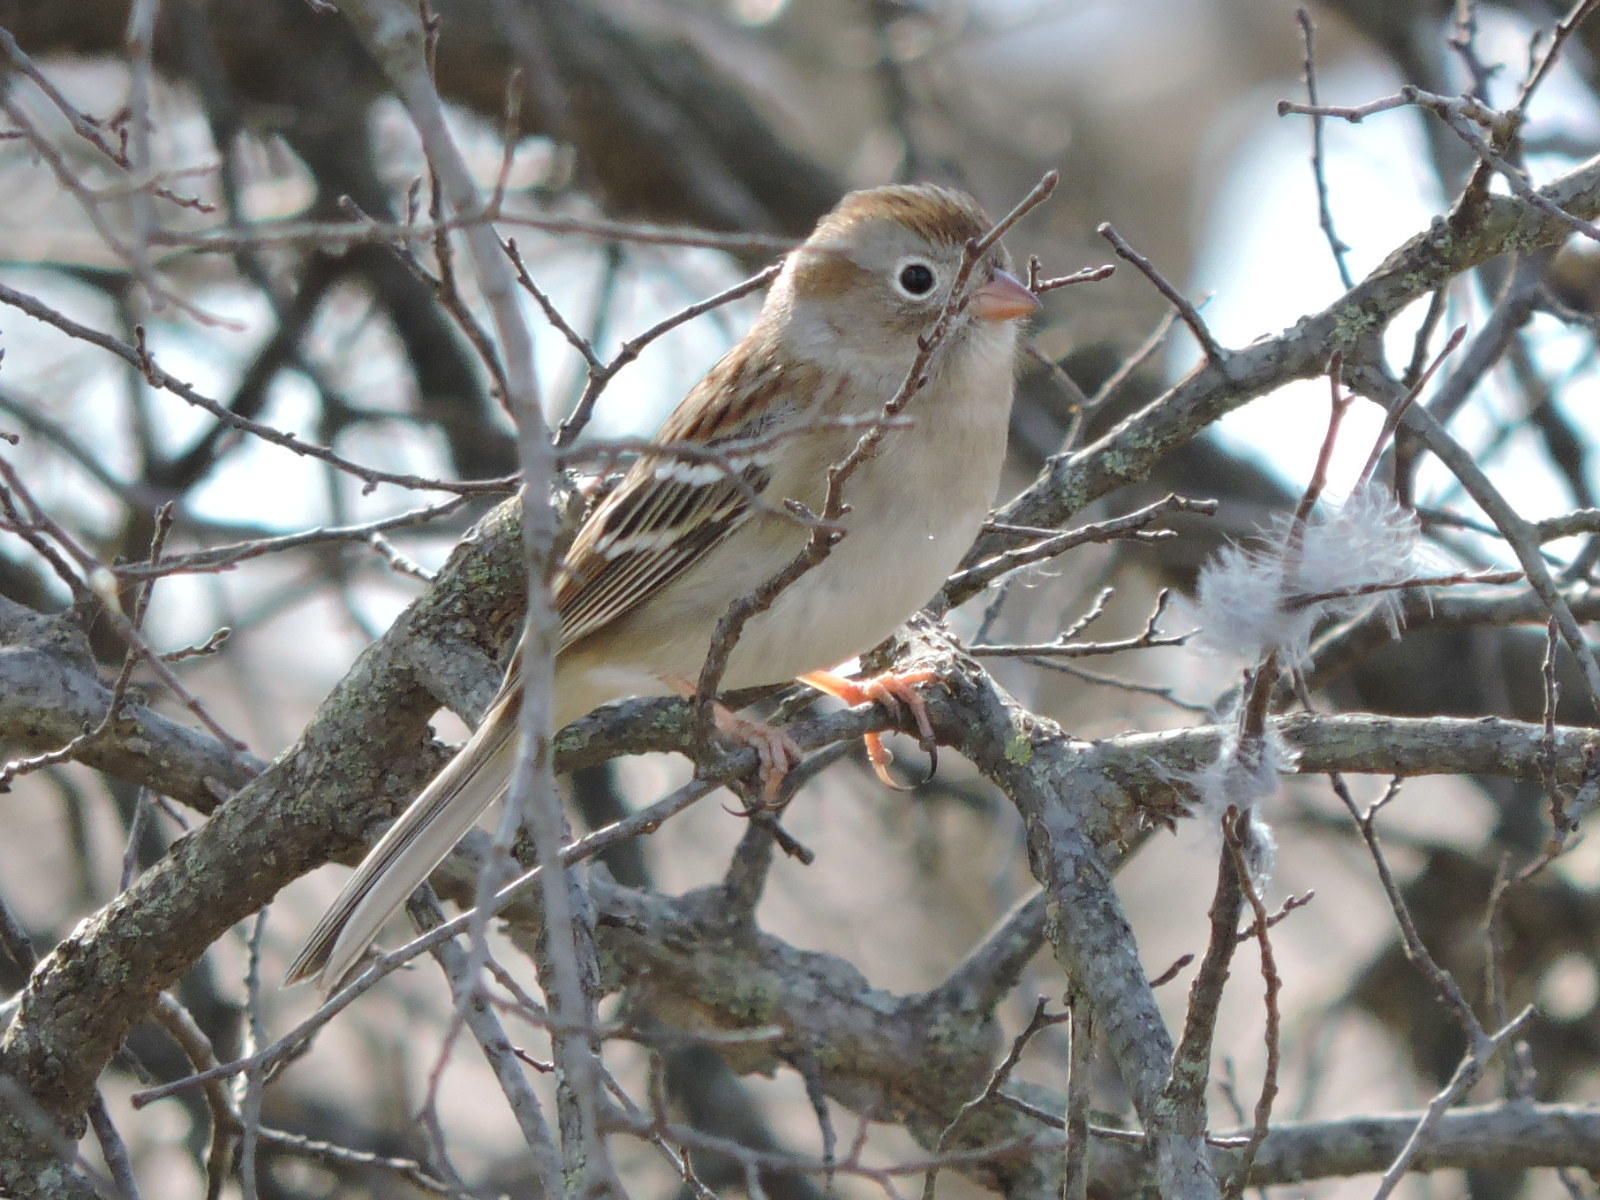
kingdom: Animalia
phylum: Chordata
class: Aves
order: Passeriformes
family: Passerellidae
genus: Spizella
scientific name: Spizella pusilla
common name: Field sparrow
